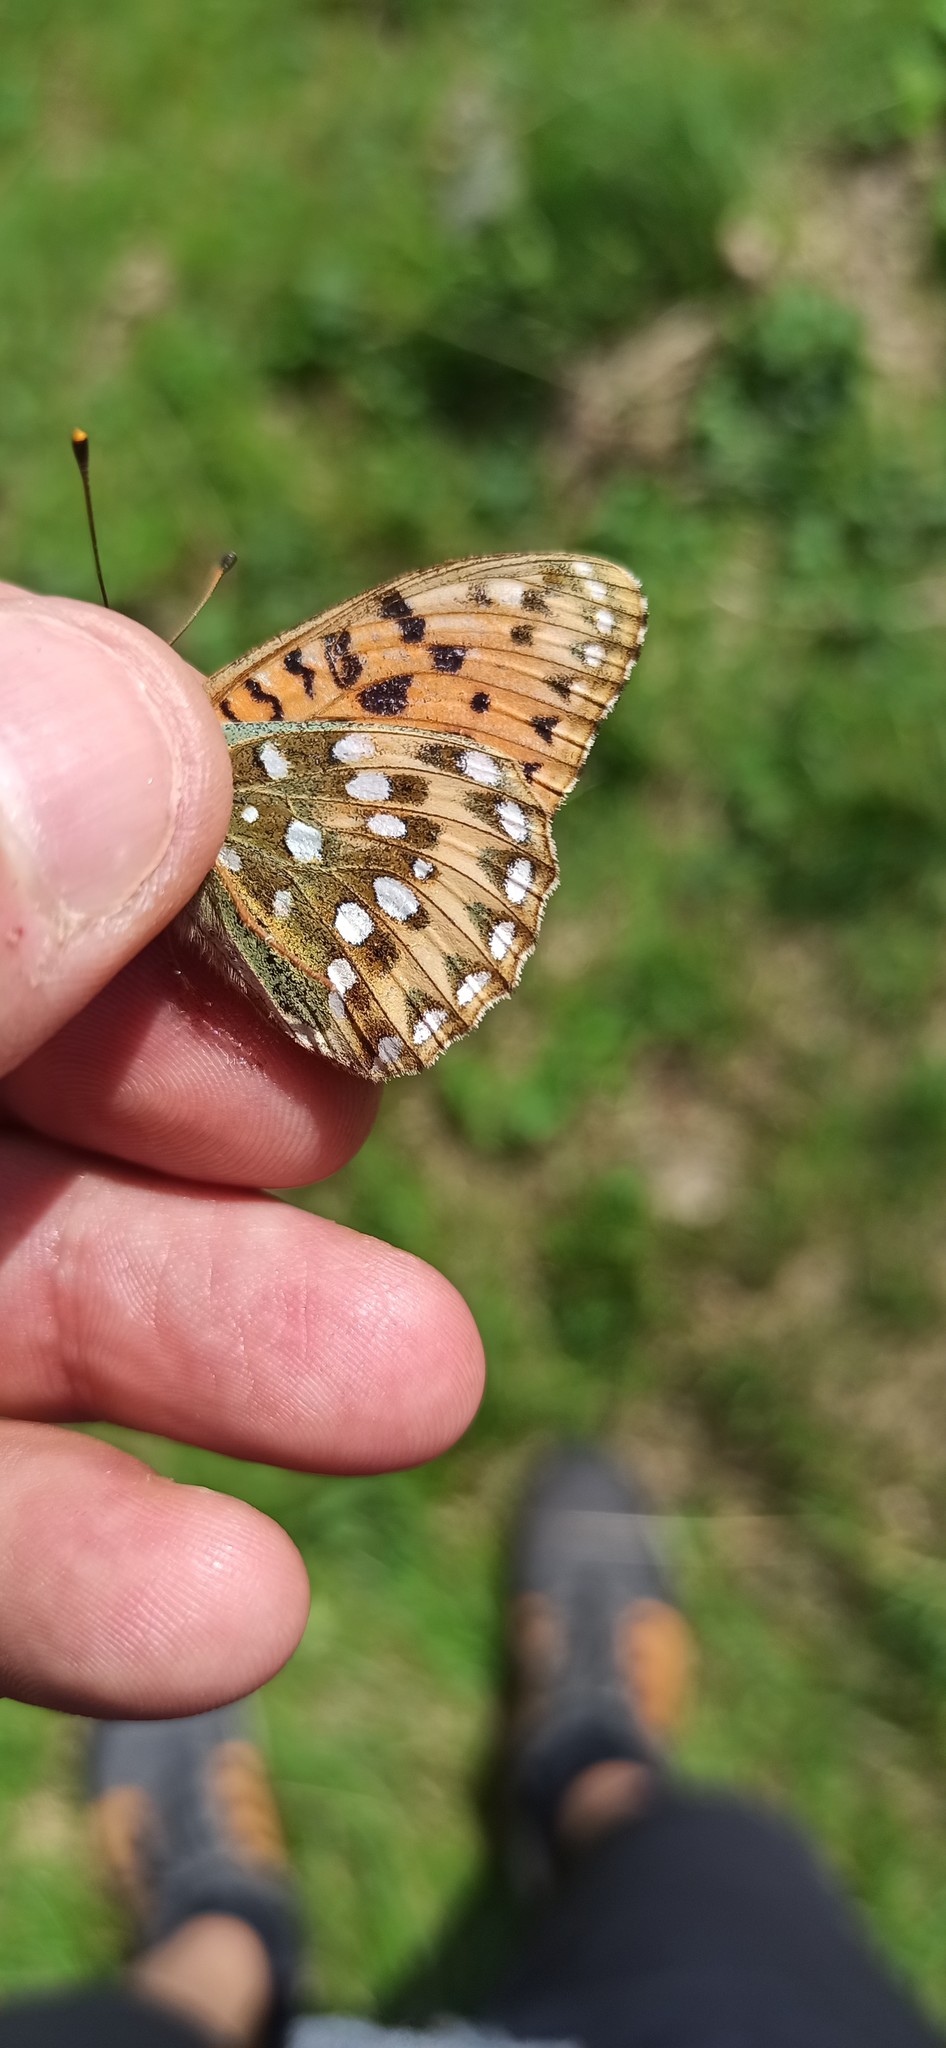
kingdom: Animalia
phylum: Arthropoda
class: Insecta
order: Lepidoptera
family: Nymphalidae
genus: Speyeria
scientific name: Speyeria aglaja
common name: Dark green fritillary
